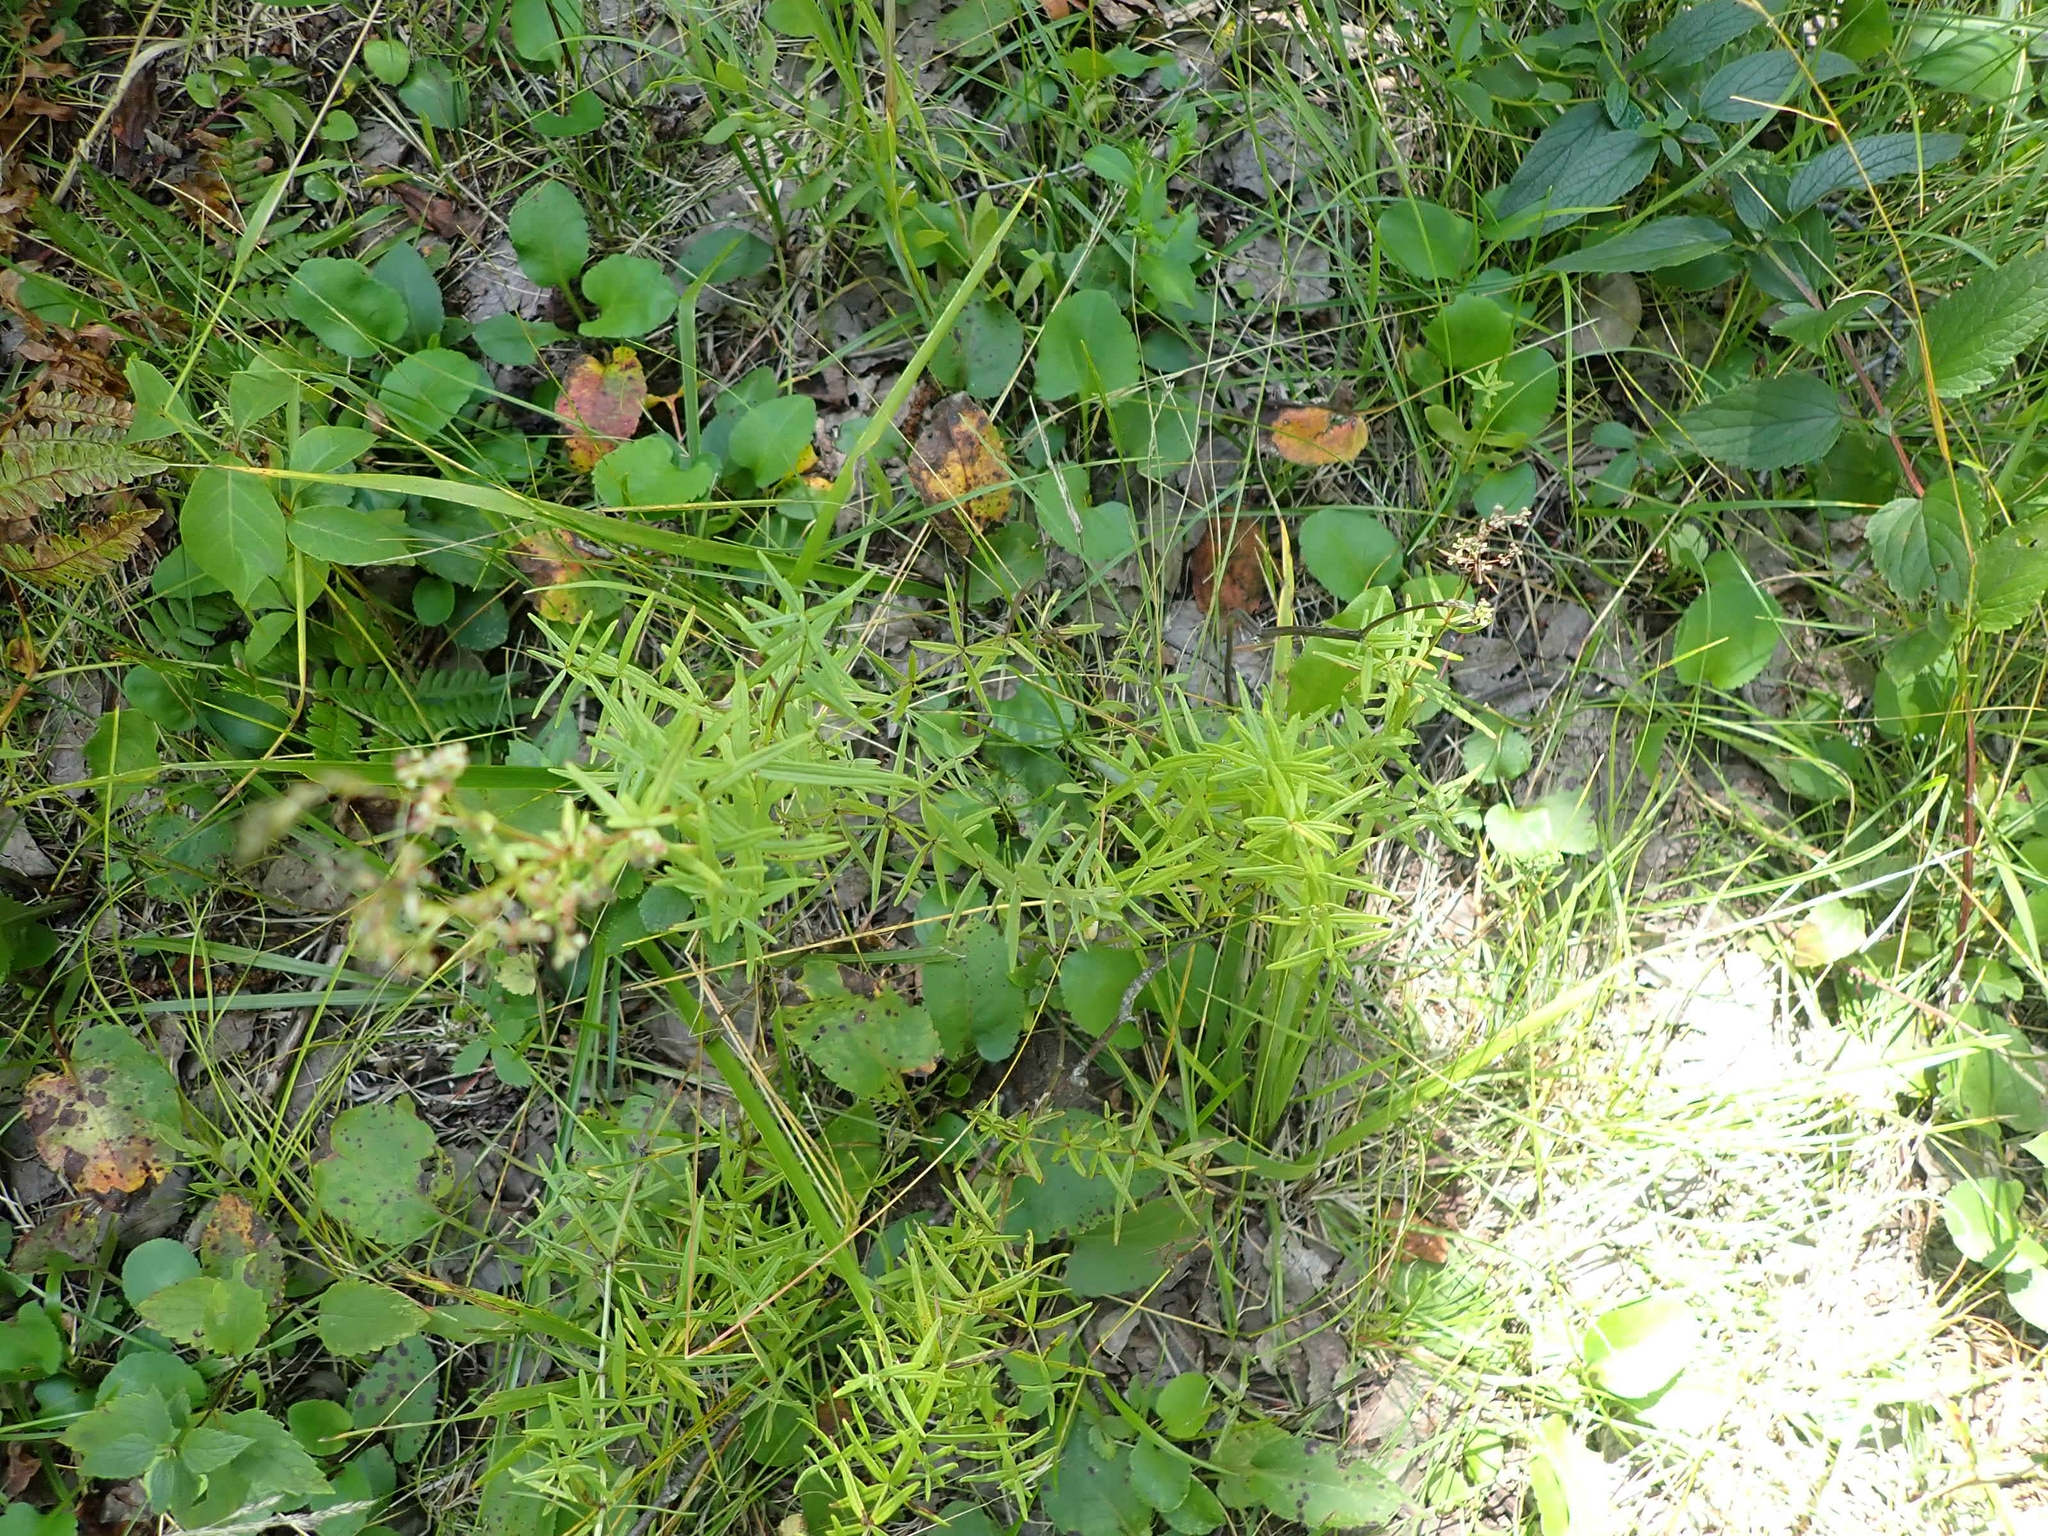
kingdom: Plantae
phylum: Tracheophyta
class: Magnoliopsida
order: Gentianales
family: Rubiaceae
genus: Galium
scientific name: Galium boreale
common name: Northern bedstraw
